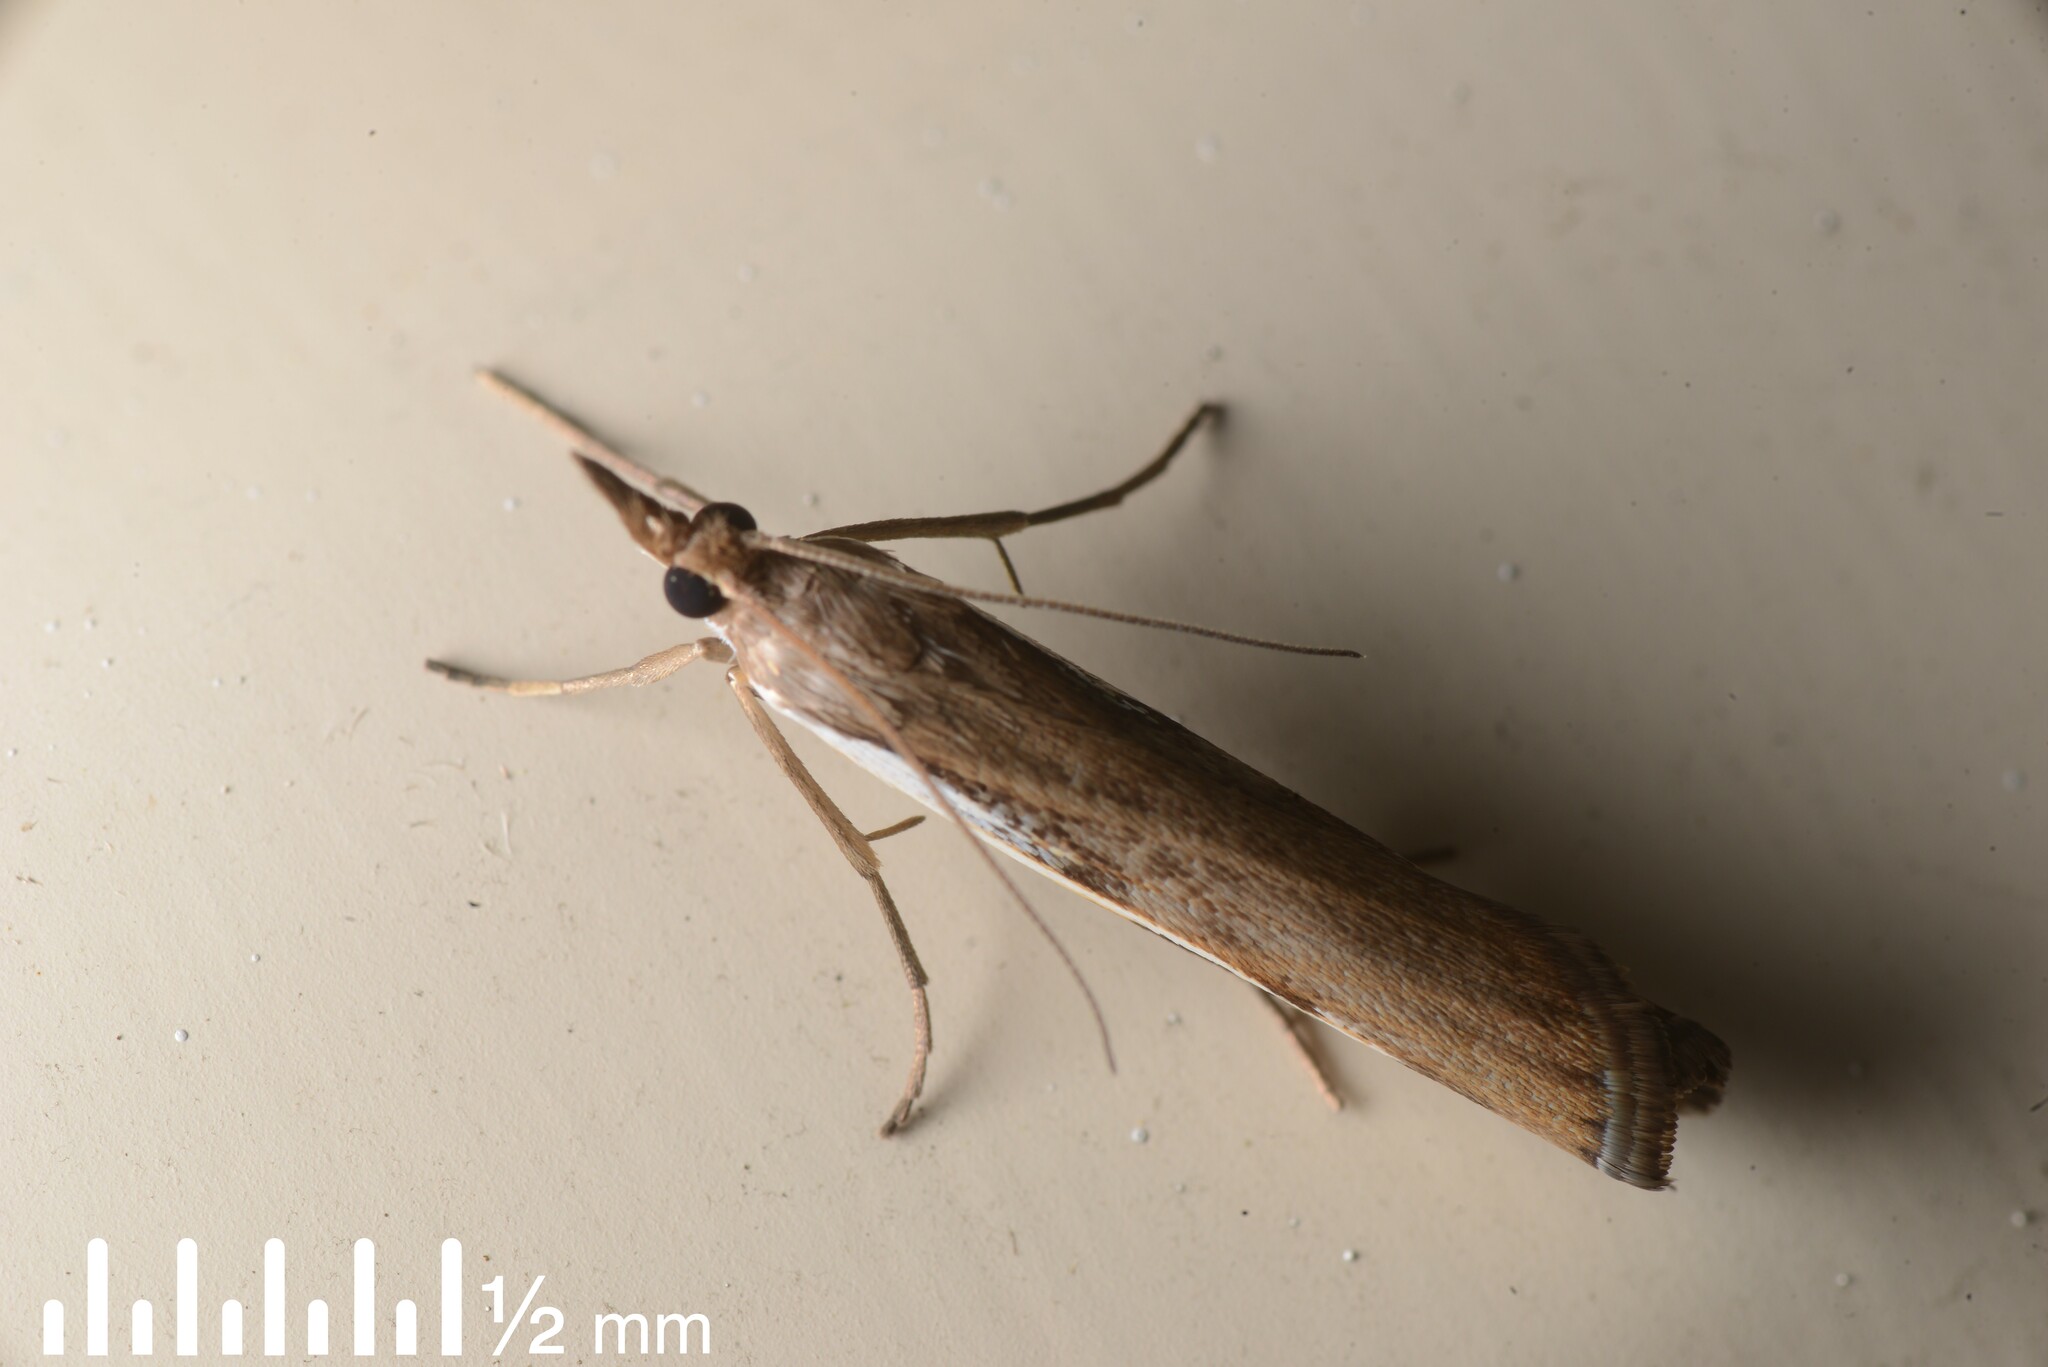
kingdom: Animalia
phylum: Arthropoda
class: Insecta
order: Lepidoptera
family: Crambidae
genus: Orocrambus
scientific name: Orocrambus flexuosellus
